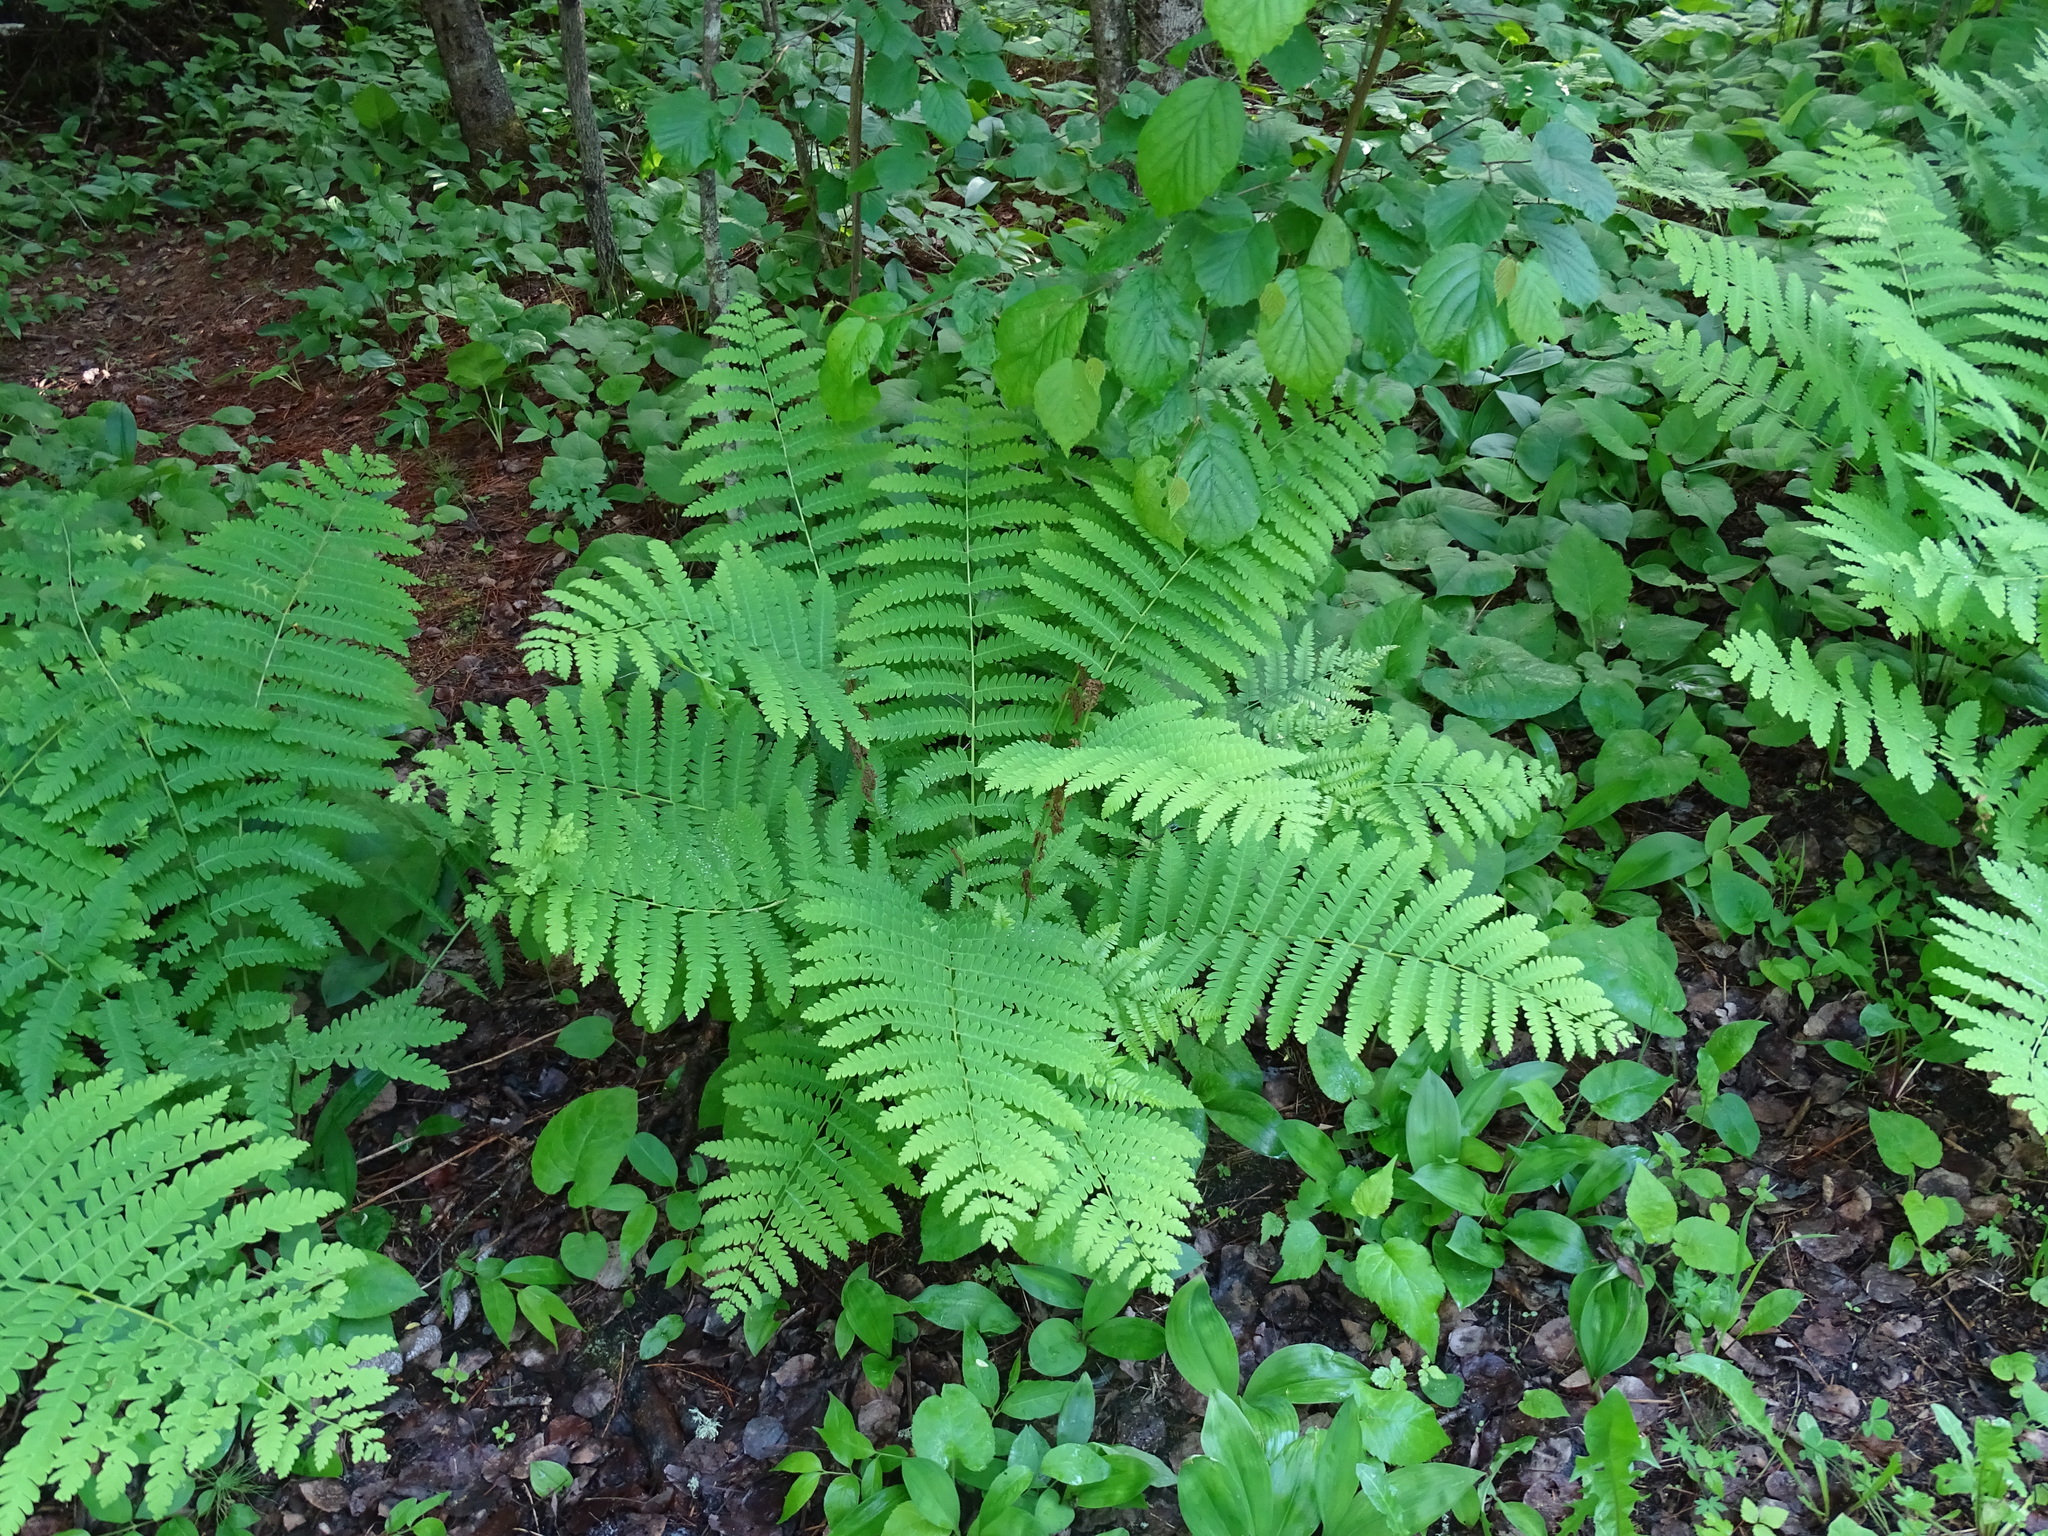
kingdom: Plantae
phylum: Tracheophyta
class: Polypodiopsida
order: Osmundales
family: Osmundaceae
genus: Claytosmunda
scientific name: Claytosmunda claytoniana
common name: Clayton's fern
